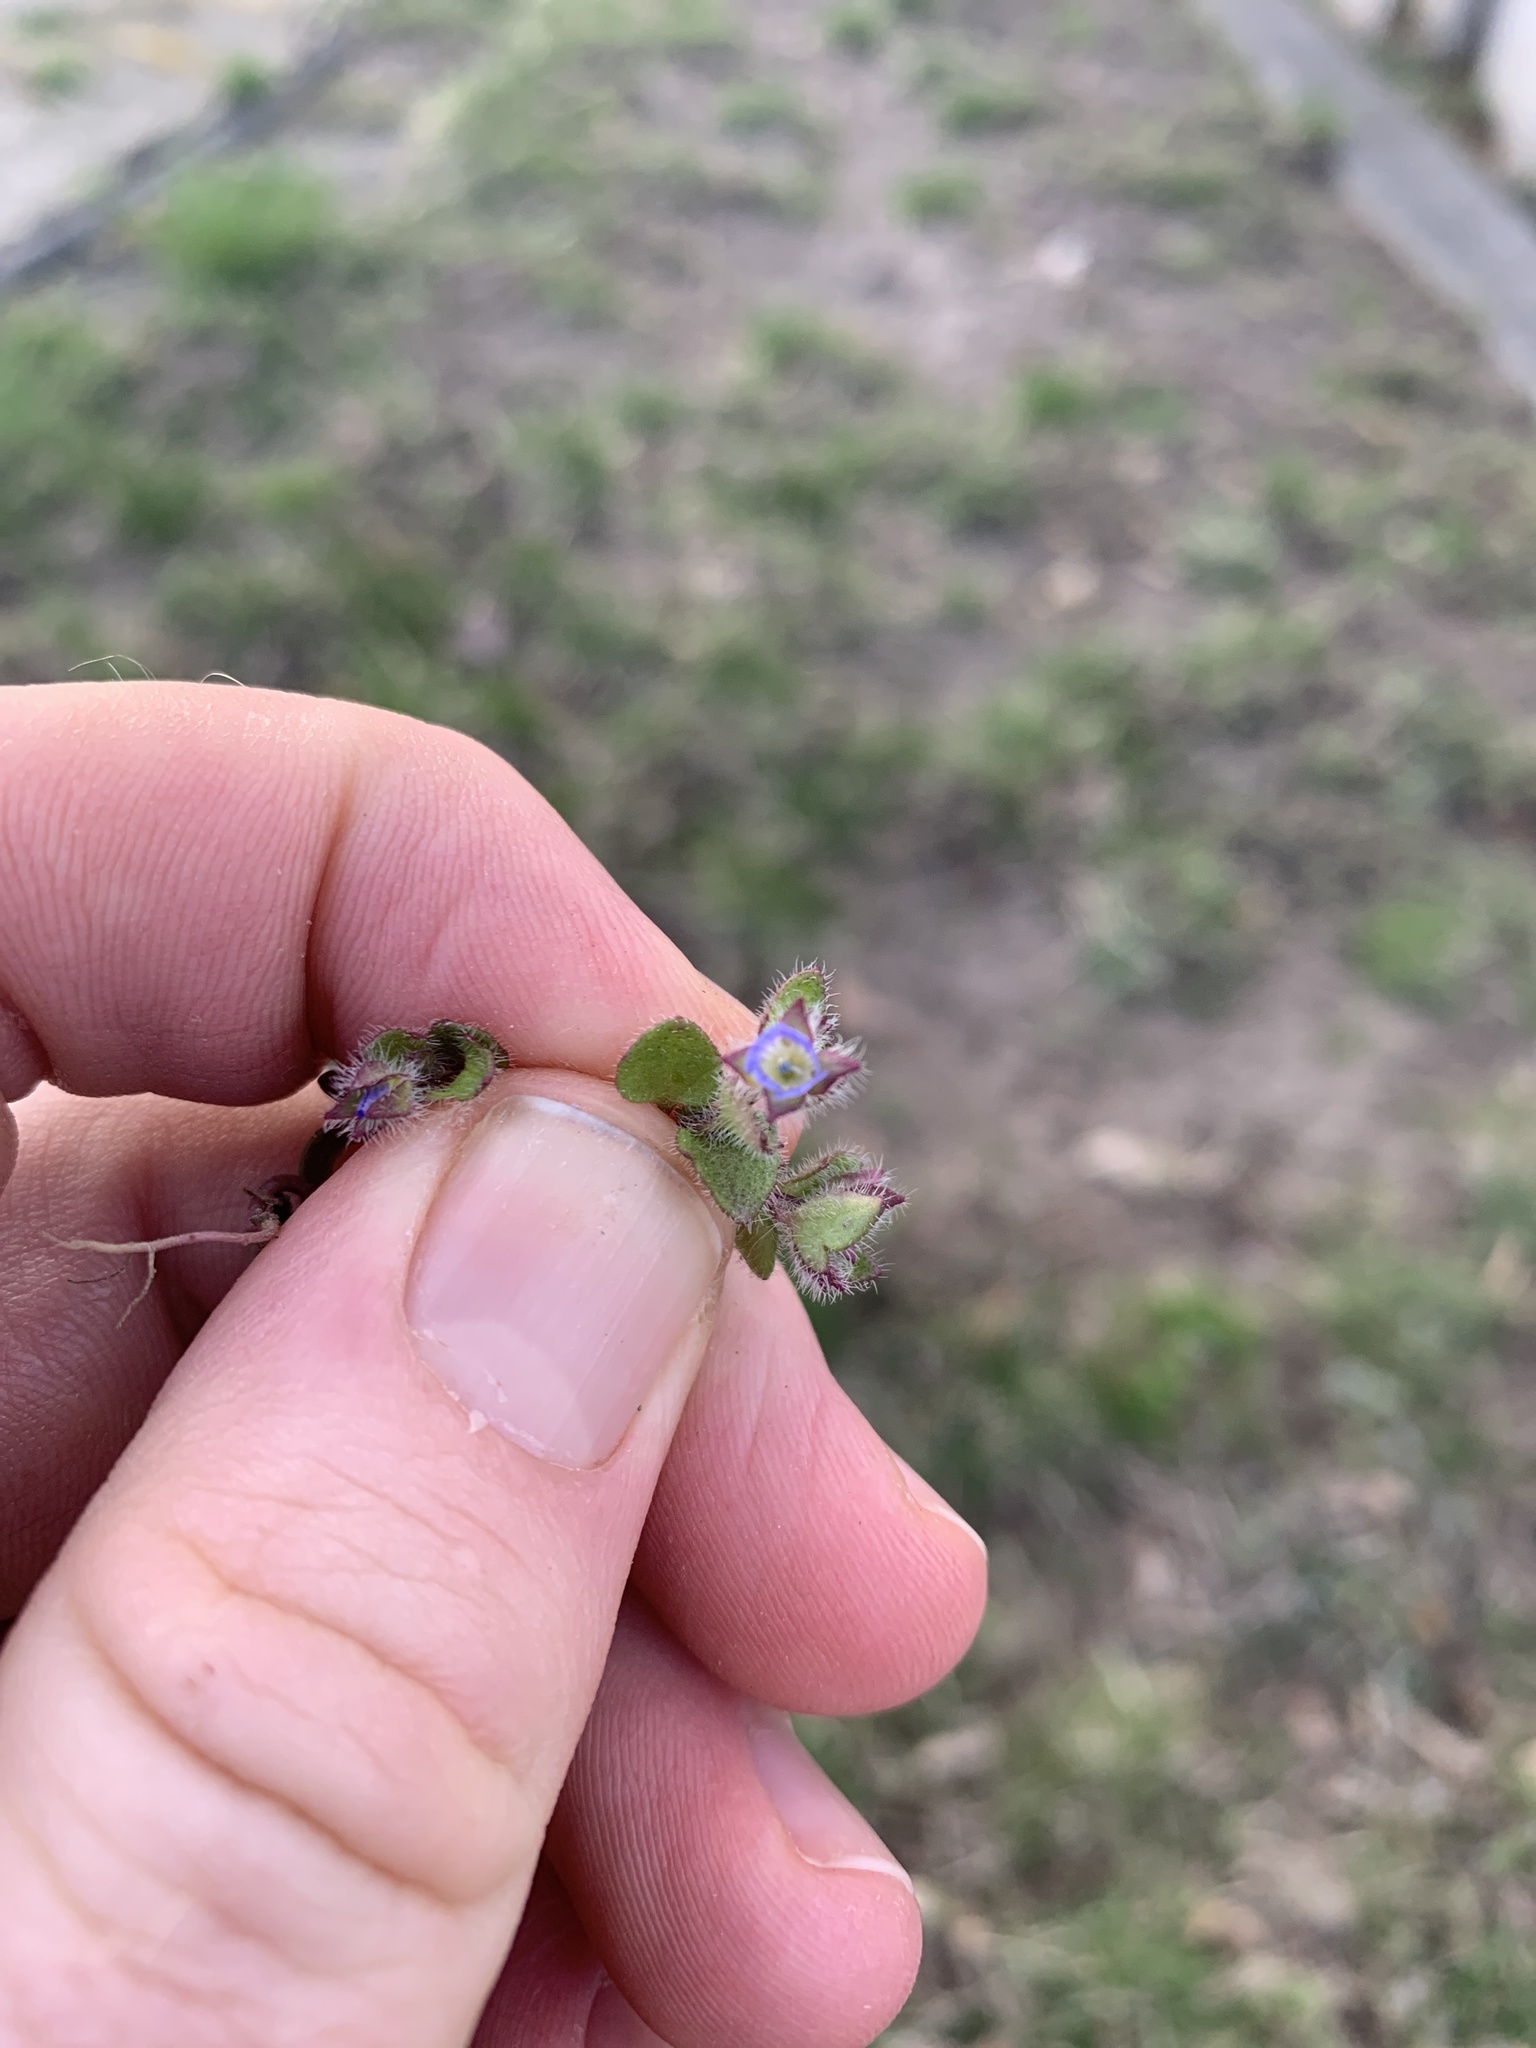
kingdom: Plantae
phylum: Tracheophyta
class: Magnoliopsida
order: Lamiales
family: Plantaginaceae
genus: Veronica
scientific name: Veronica hederifolia
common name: Ivy-leaved speedwell
